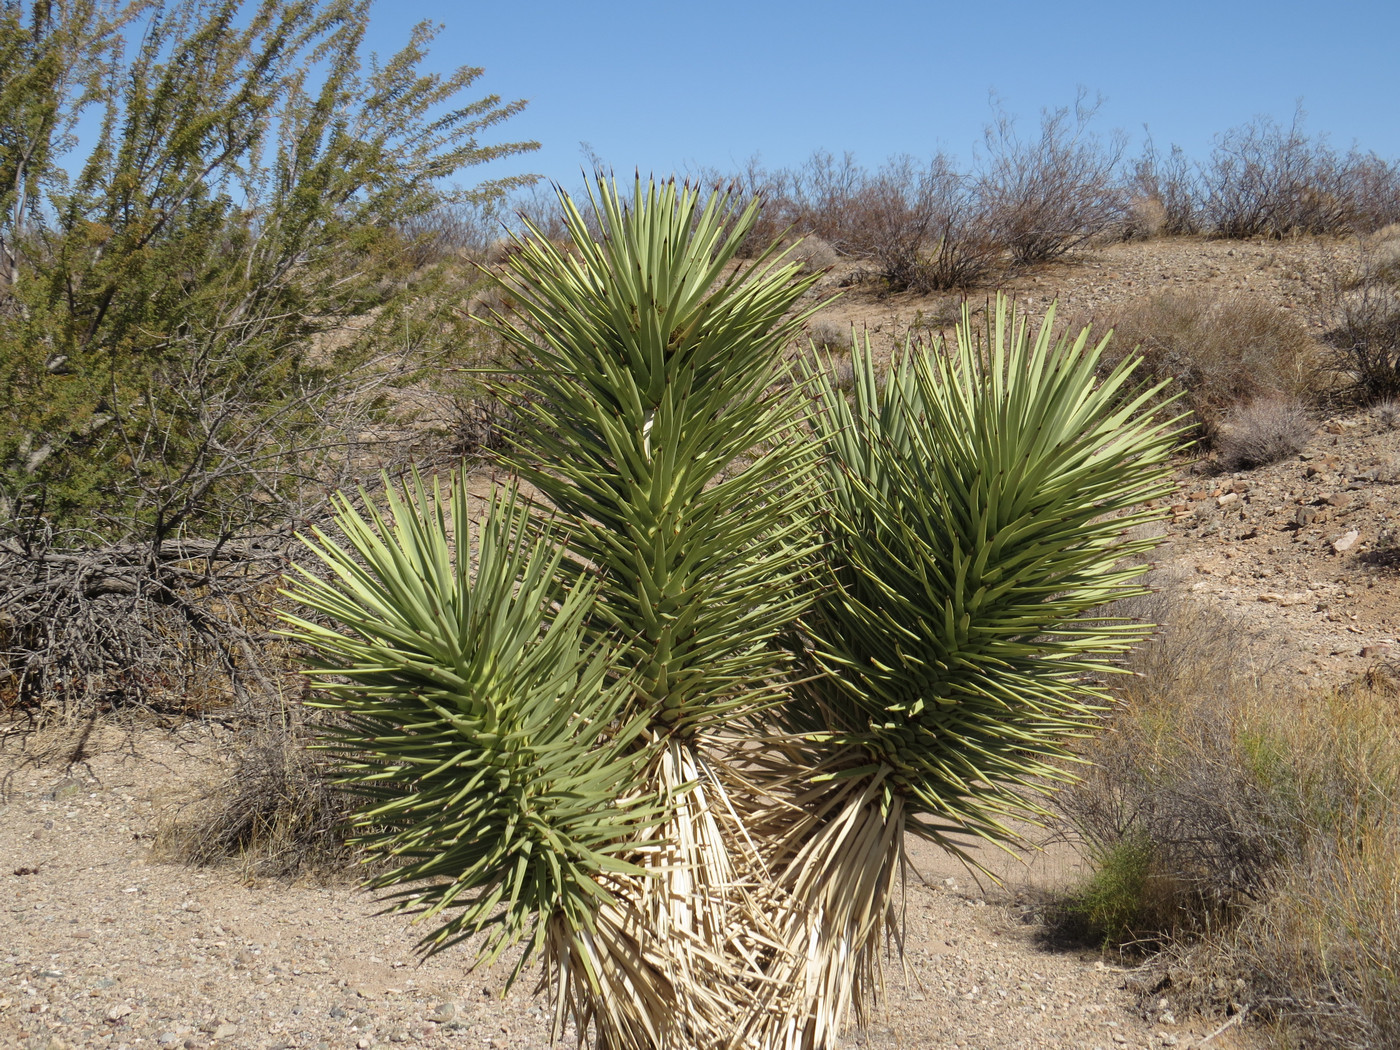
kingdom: Plantae
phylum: Tracheophyta
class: Liliopsida
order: Asparagales
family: Asparagaceae
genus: Yucca
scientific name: Yucca brevifolia
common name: Joshua tree
